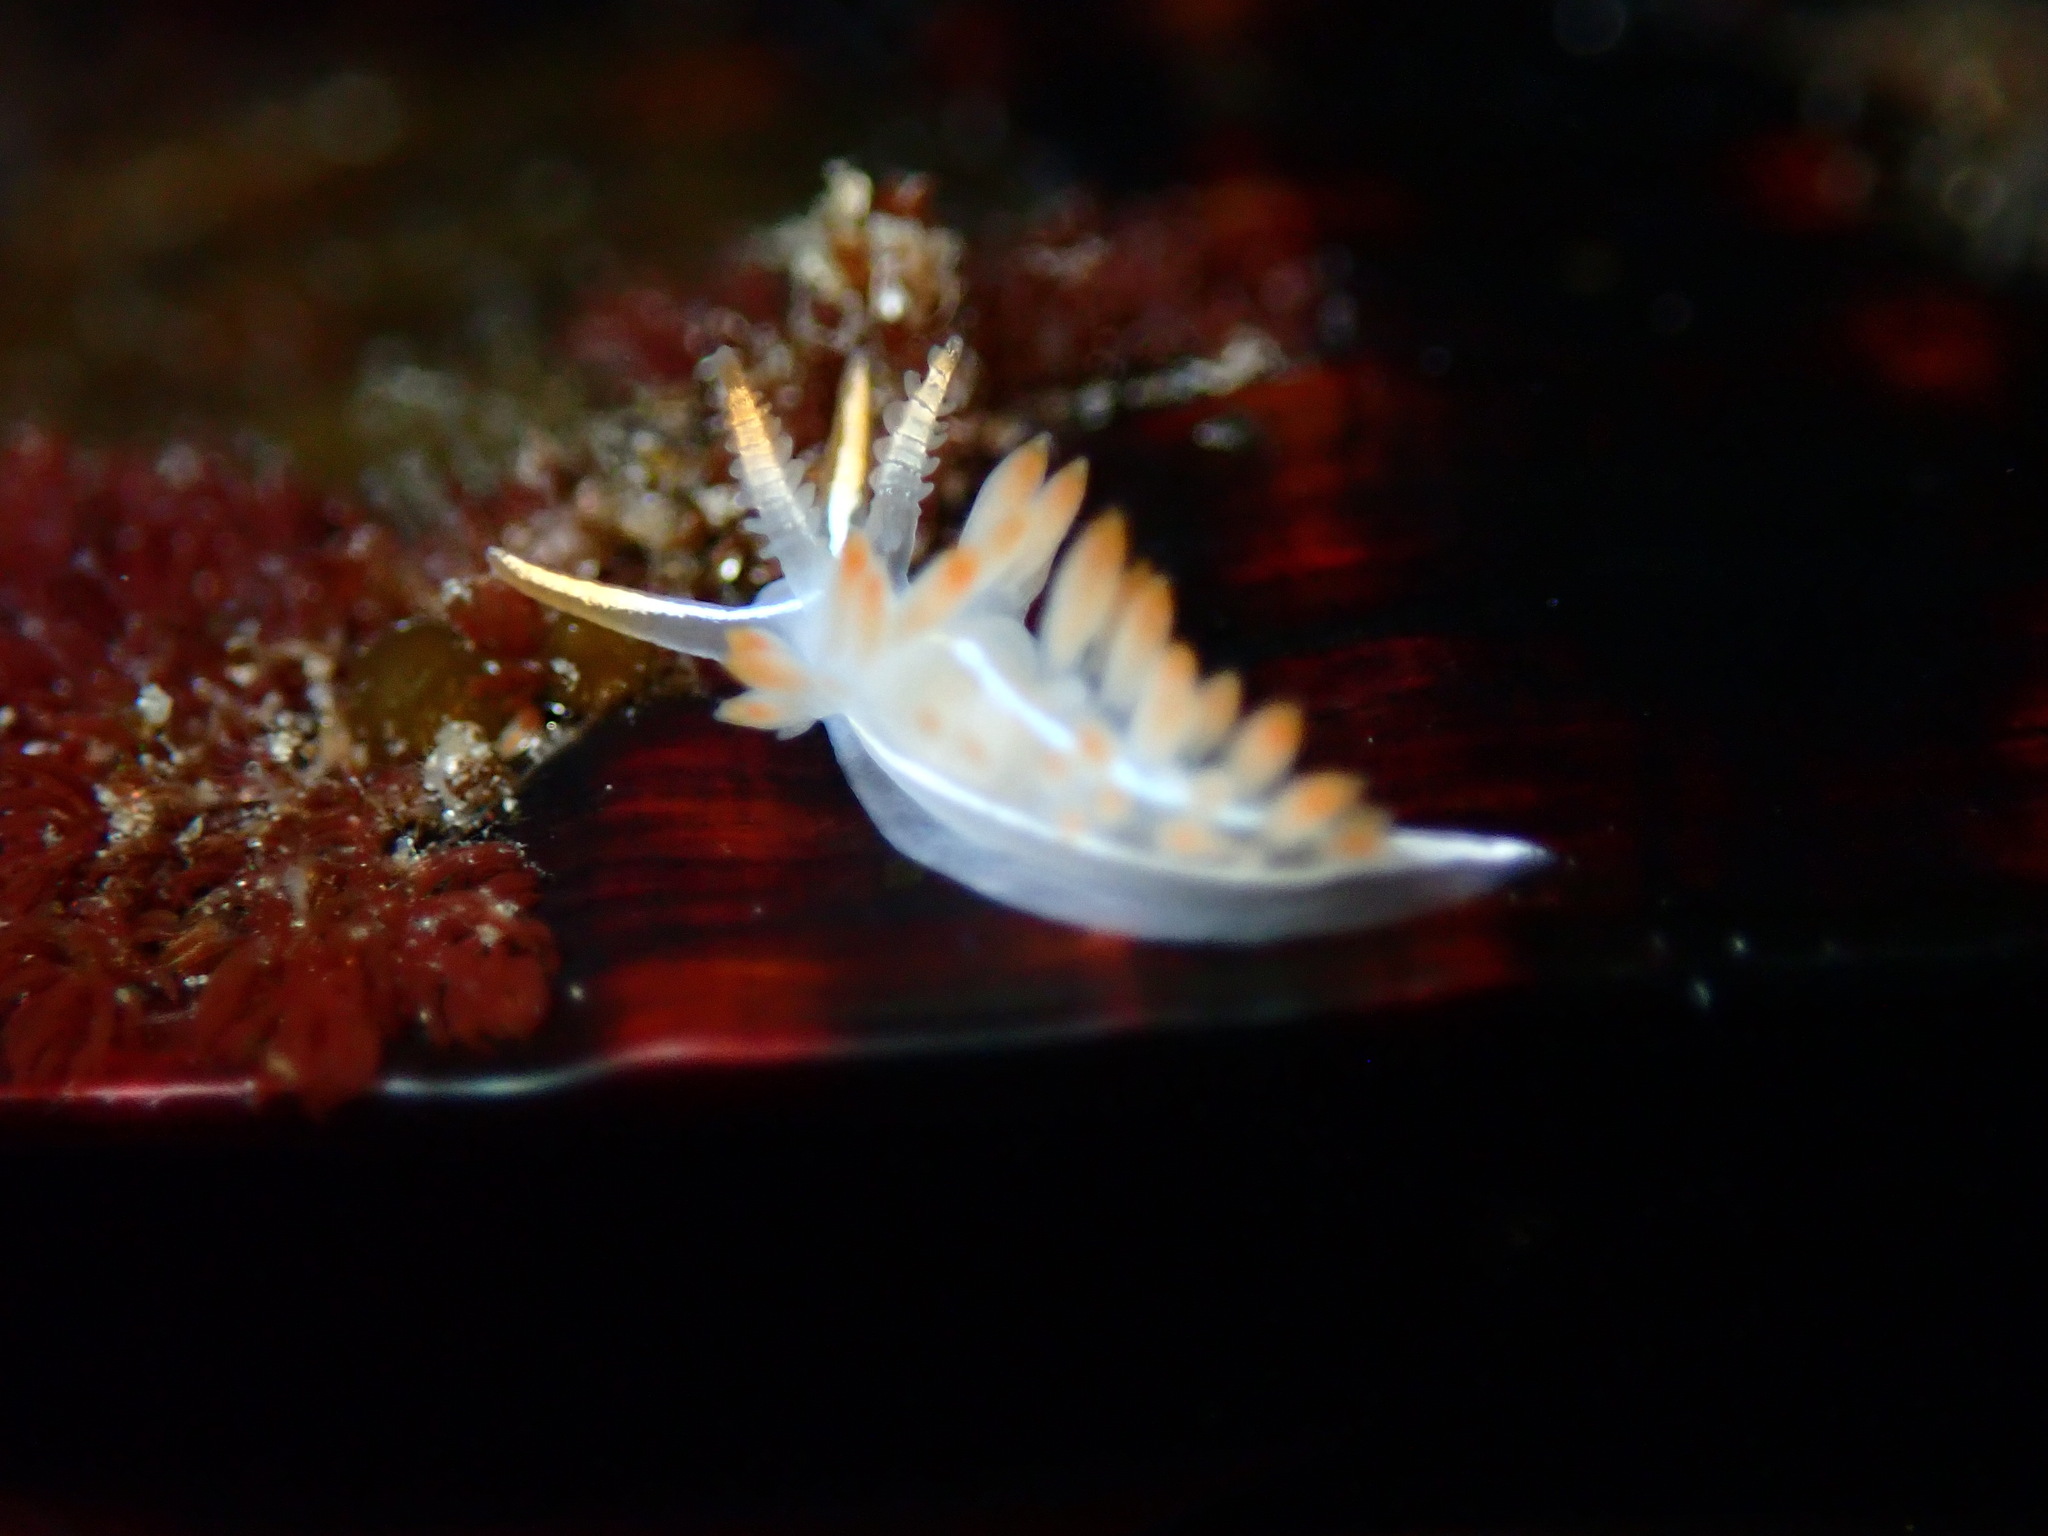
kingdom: Animalia
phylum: Mollusca
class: Gastropoda
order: Nudibranchia
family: Coryphellidae
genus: Coryphella
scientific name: Coryphella trilineata
